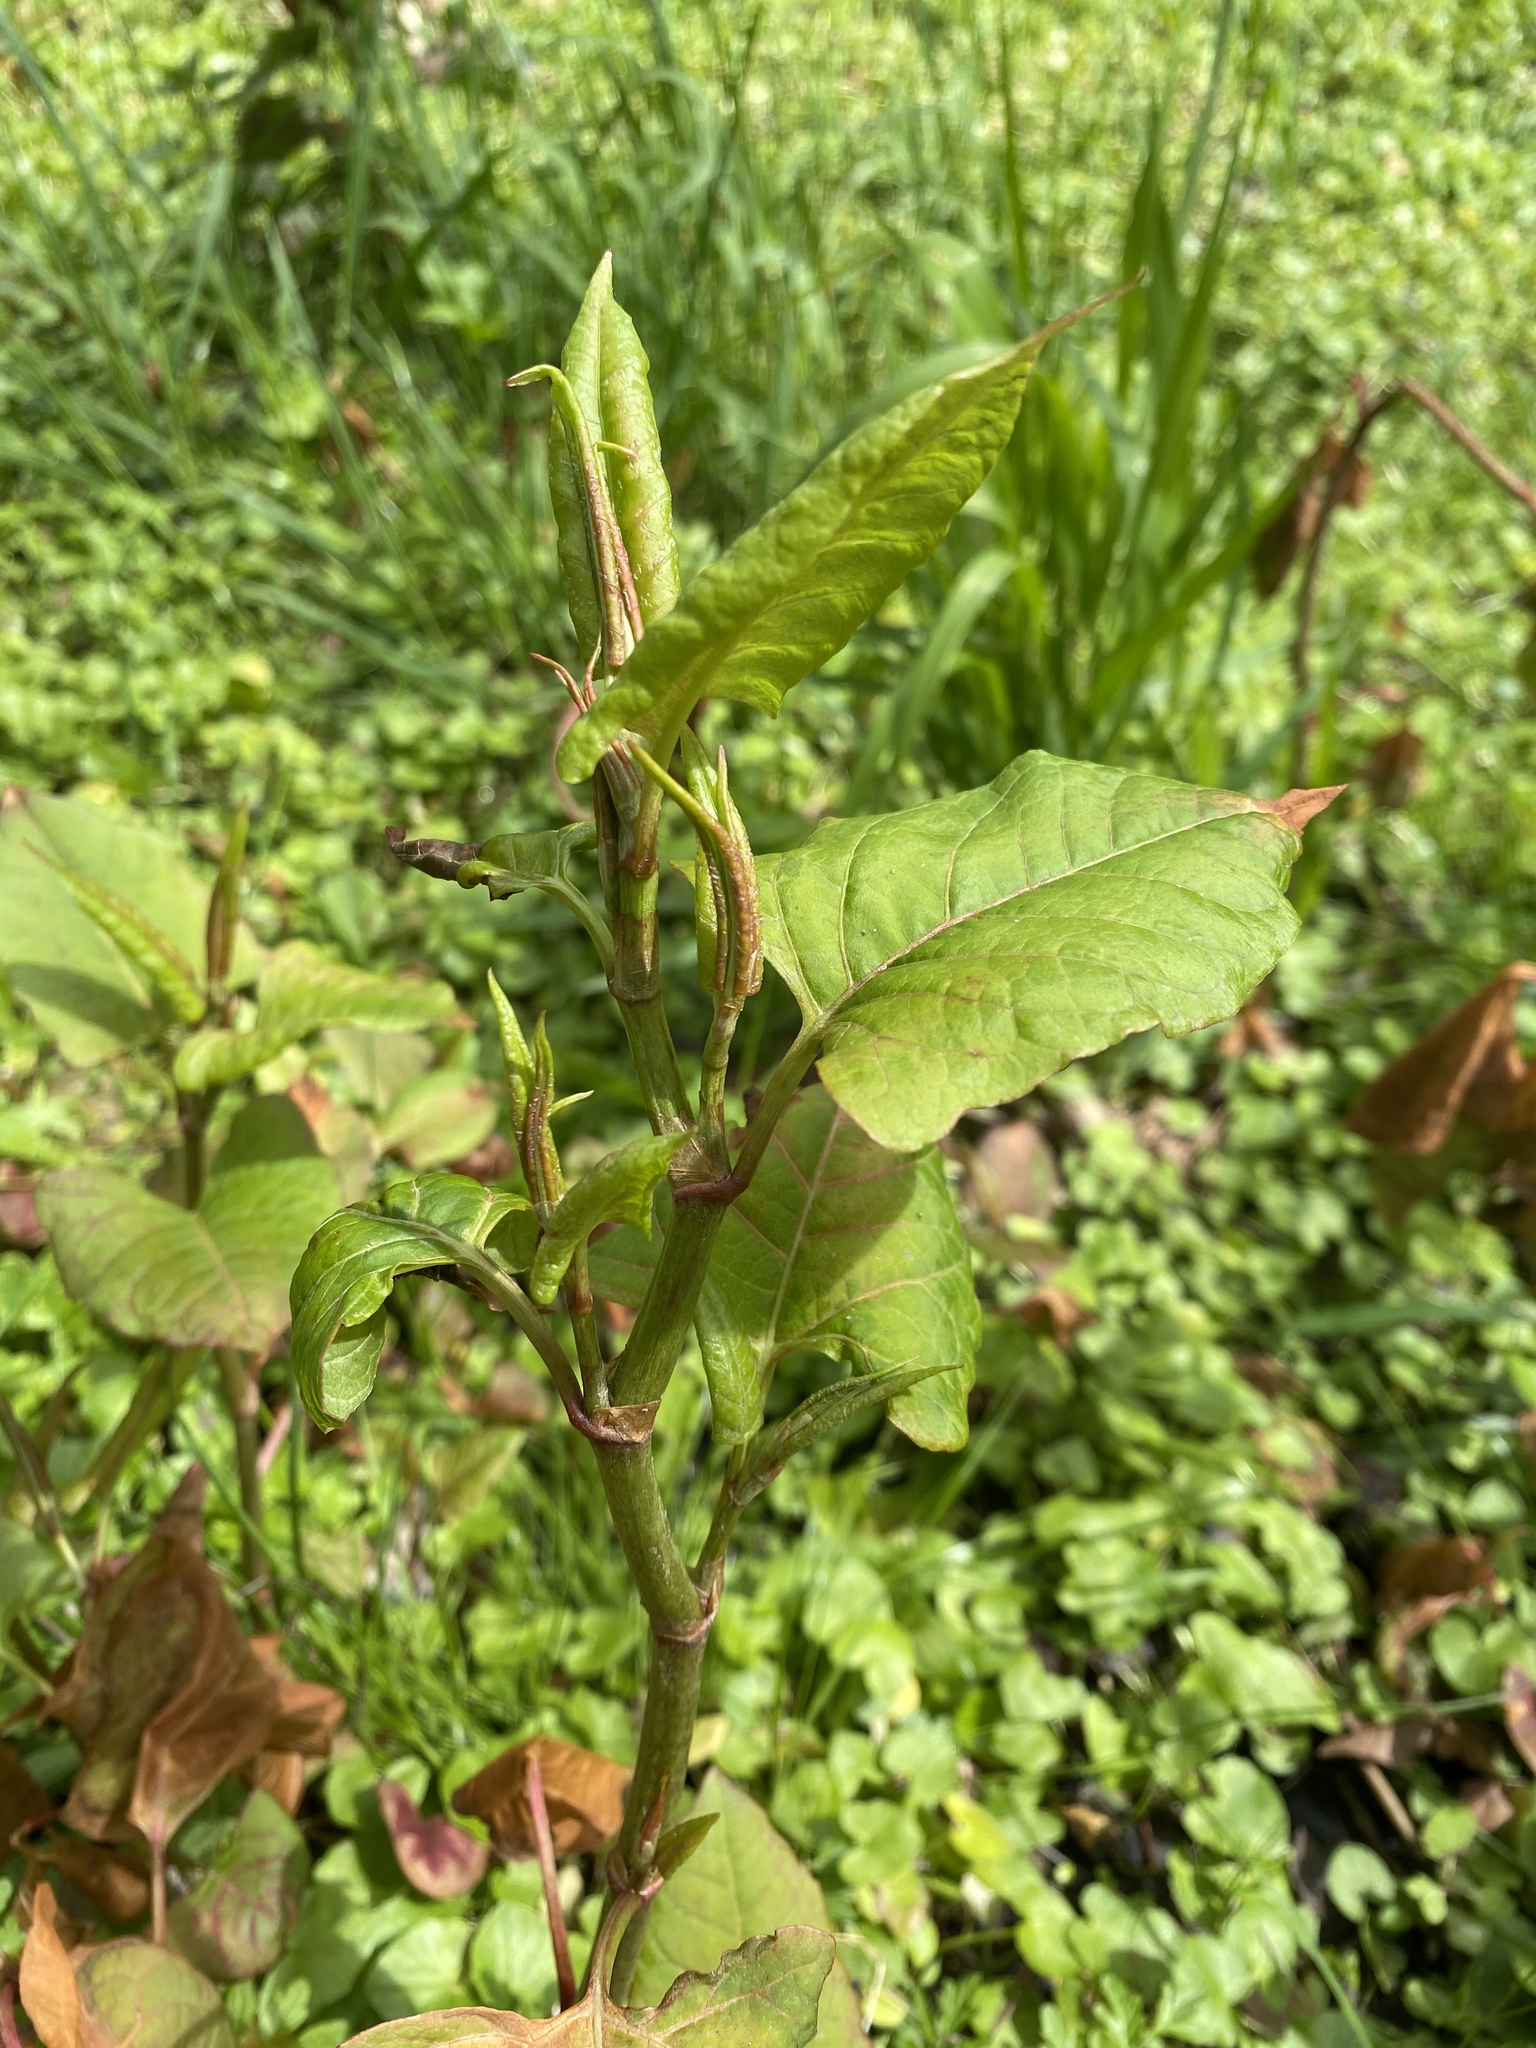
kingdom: Plantae
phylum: Tracheophyta
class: Magnoliopsida
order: Caryophyllales
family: Polygonaceae
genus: Reynoutria
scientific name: Reynoutria japonica
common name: Japanese knotweed
